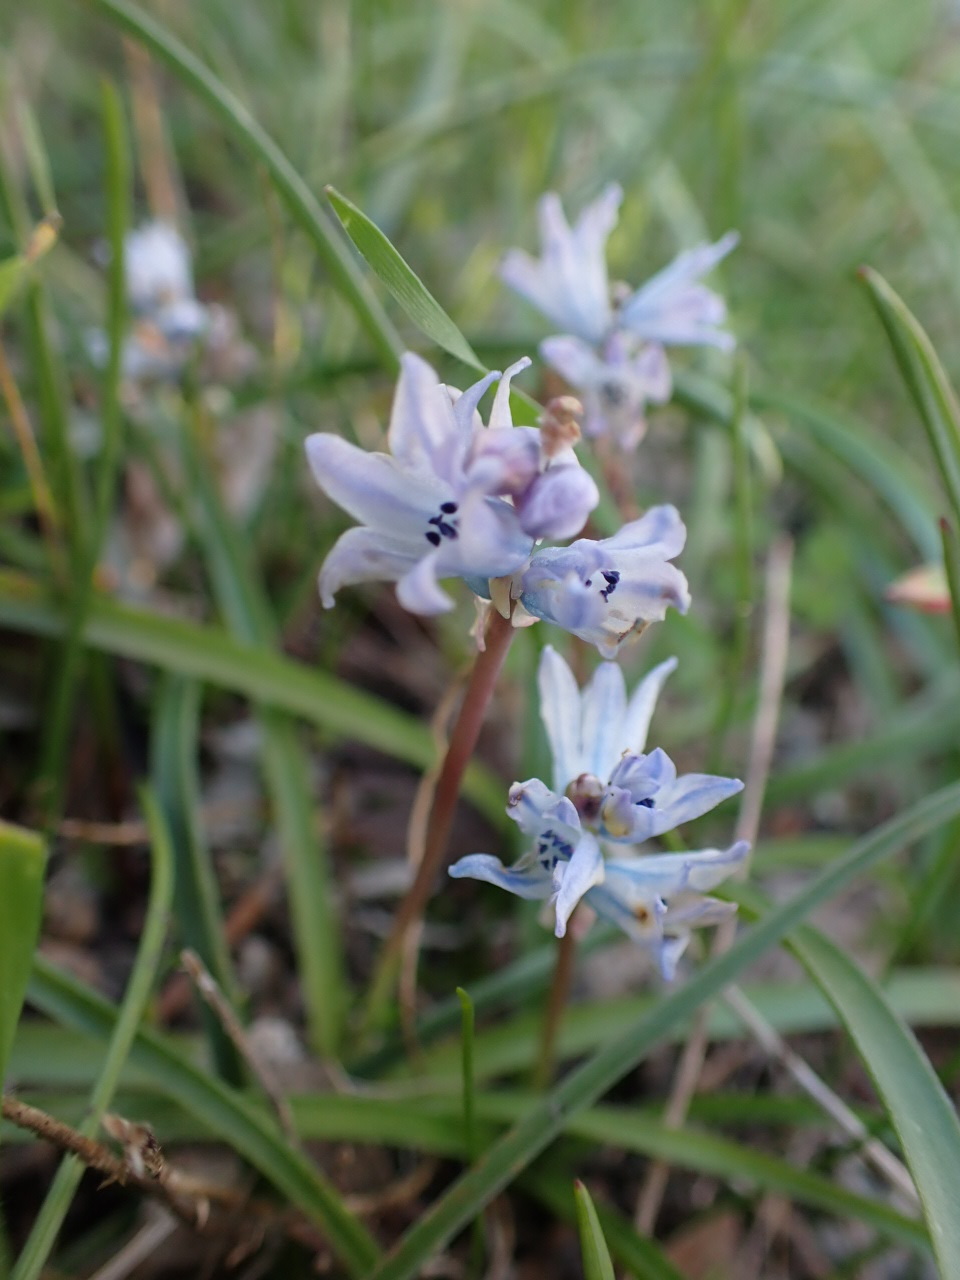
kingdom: Plantae
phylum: Tracheophyta
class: Liliopsida
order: Asparagales
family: Asparagaceae
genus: Bellevalia
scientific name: Bellevalia hyacinthoides
